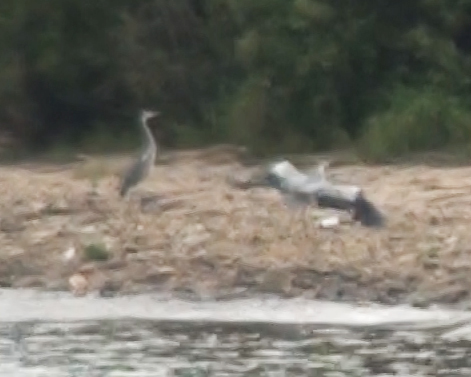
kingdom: Animalia
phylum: Chordata
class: Aves
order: Pelecaniformes
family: Ardeidae
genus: Ardea
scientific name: Ardea cinerea
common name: Grey heron
